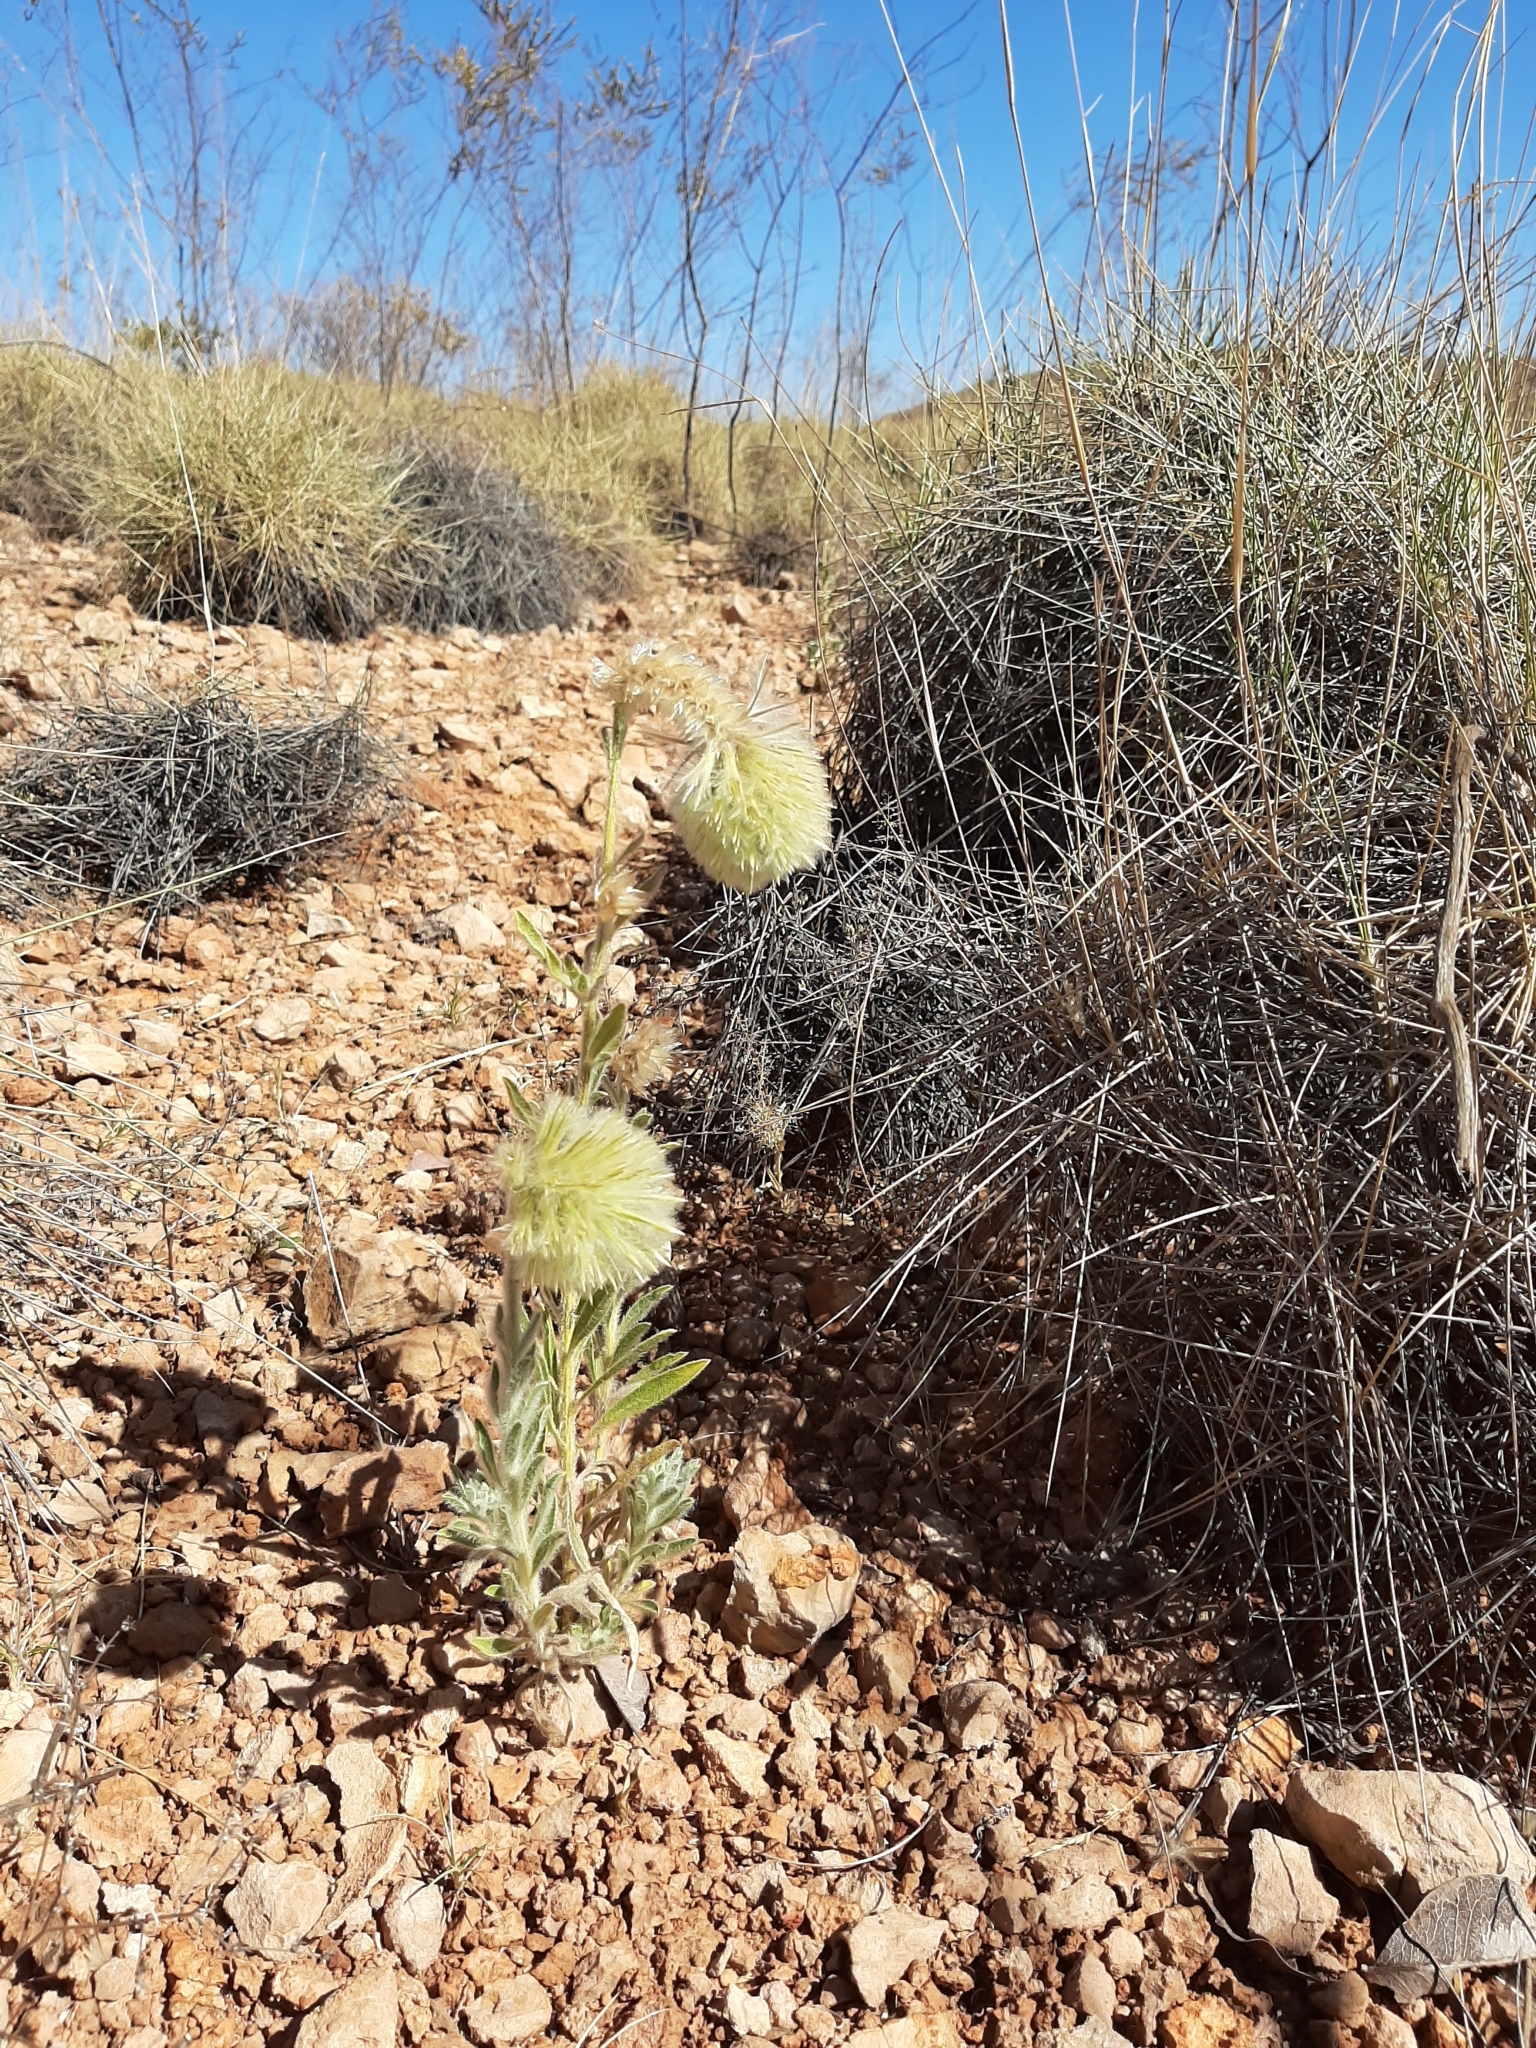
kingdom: Plantae
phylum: Tracheophyta
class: Magnoliopsida
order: Caryophyllales
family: Amaranthaceae
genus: Ptilotus
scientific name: Ptilotus clementii
